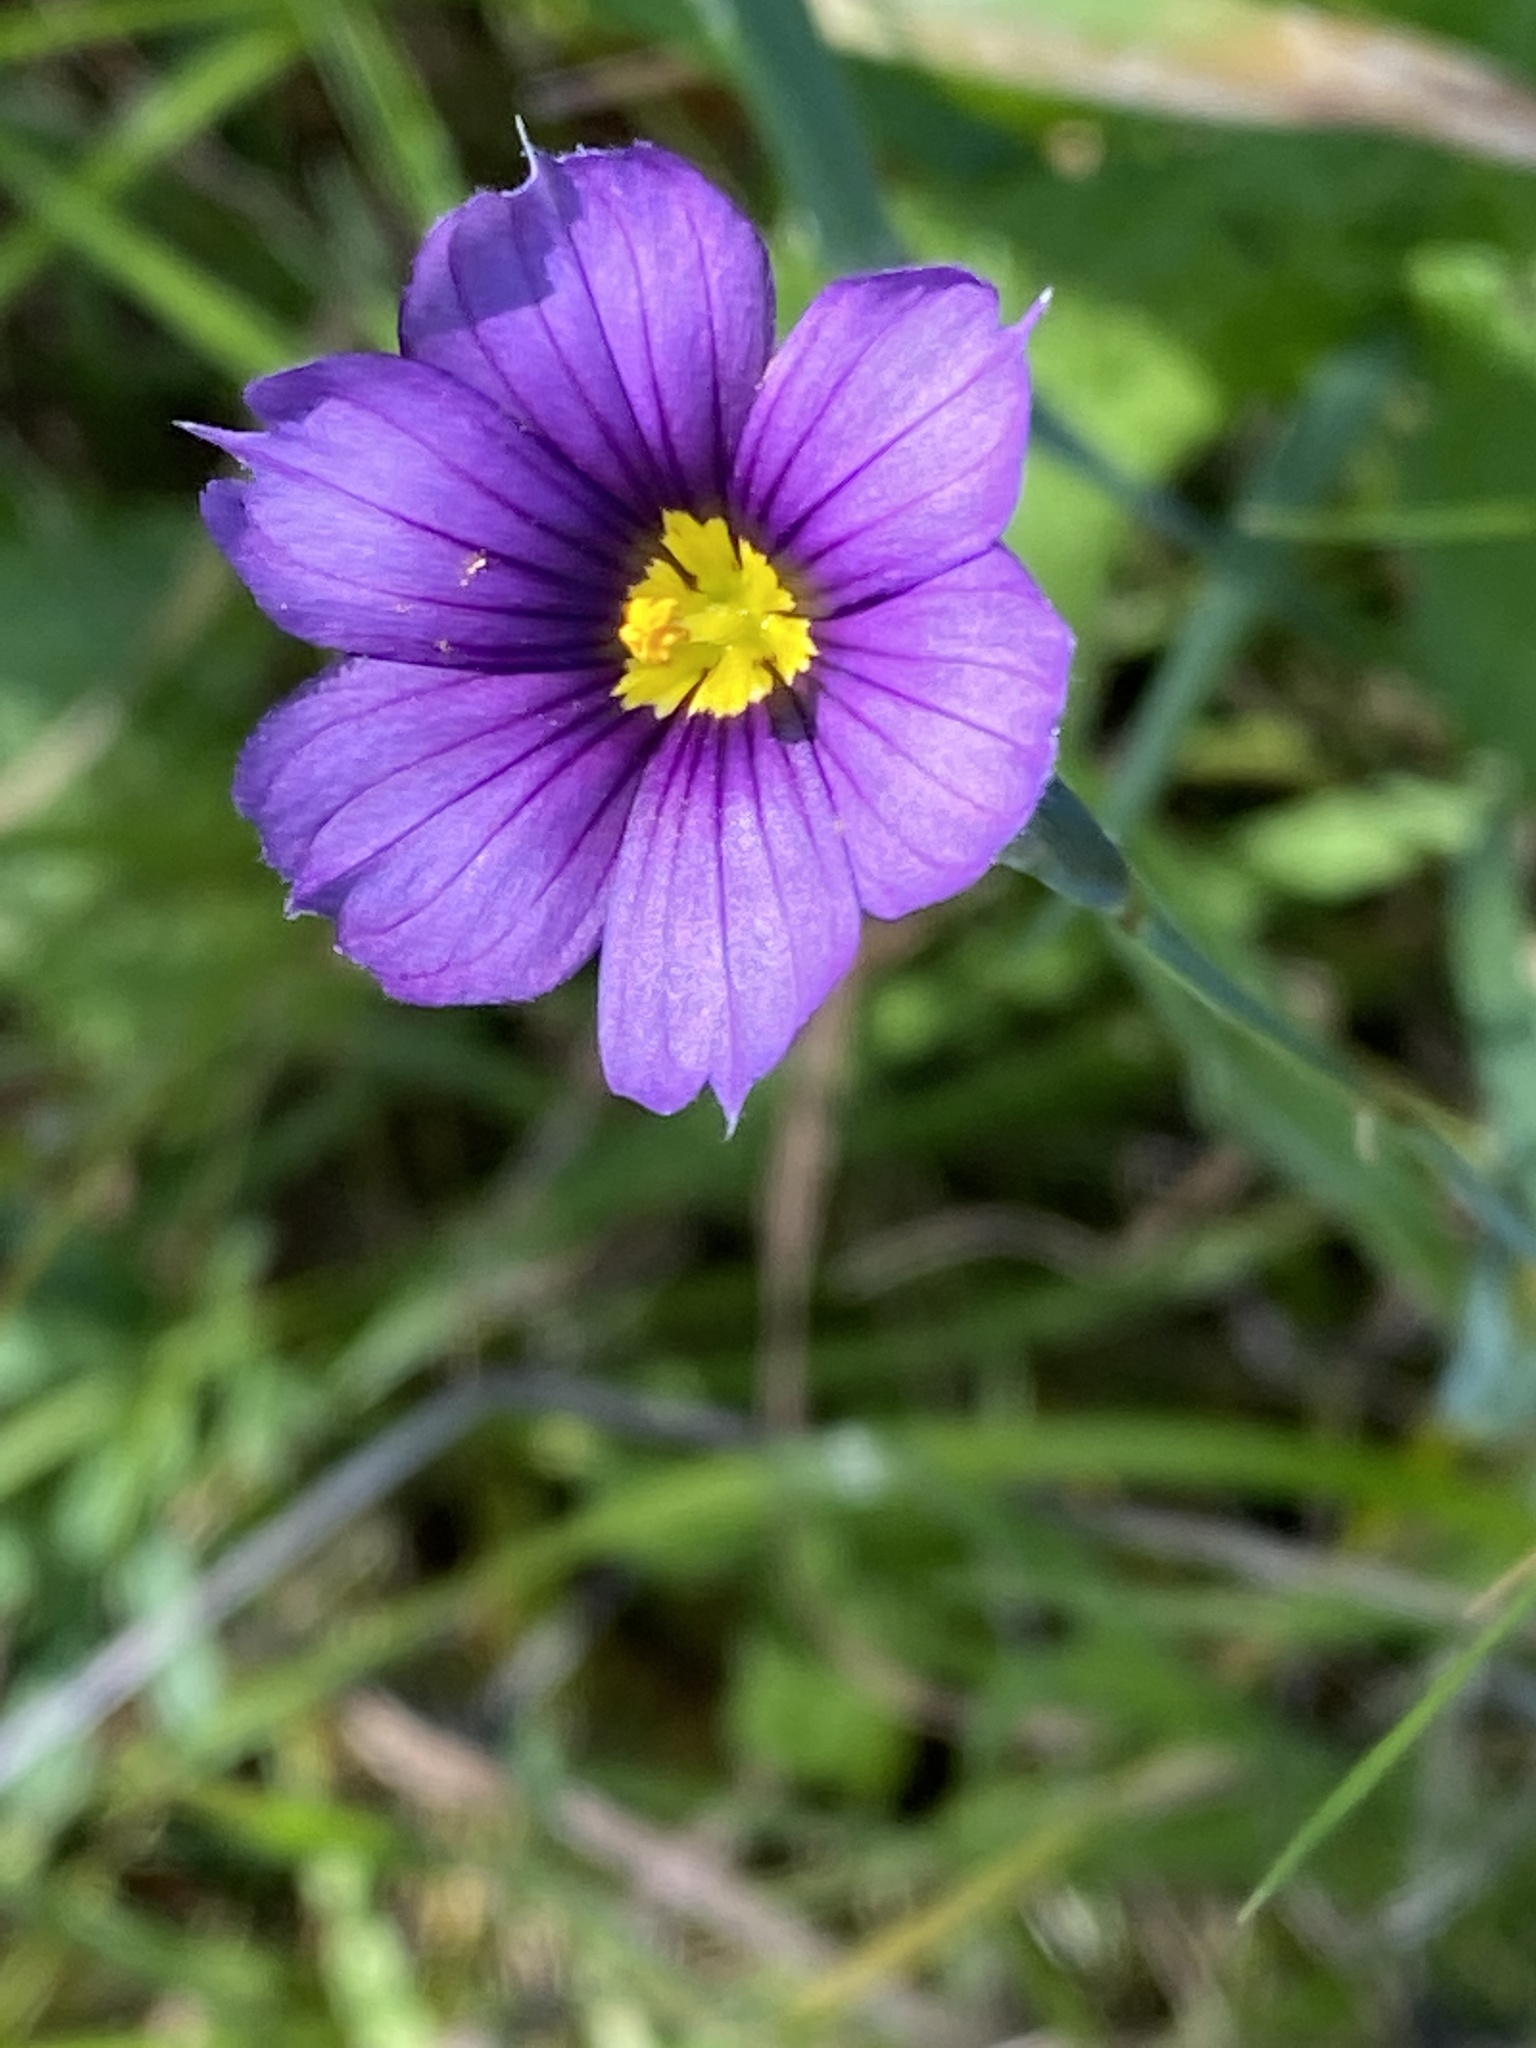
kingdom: Plantae
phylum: Tracheophyta
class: Liliopsida
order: Asparagales
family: Iridaceae
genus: Sisyrinchium
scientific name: Sisyrinchium bellum
